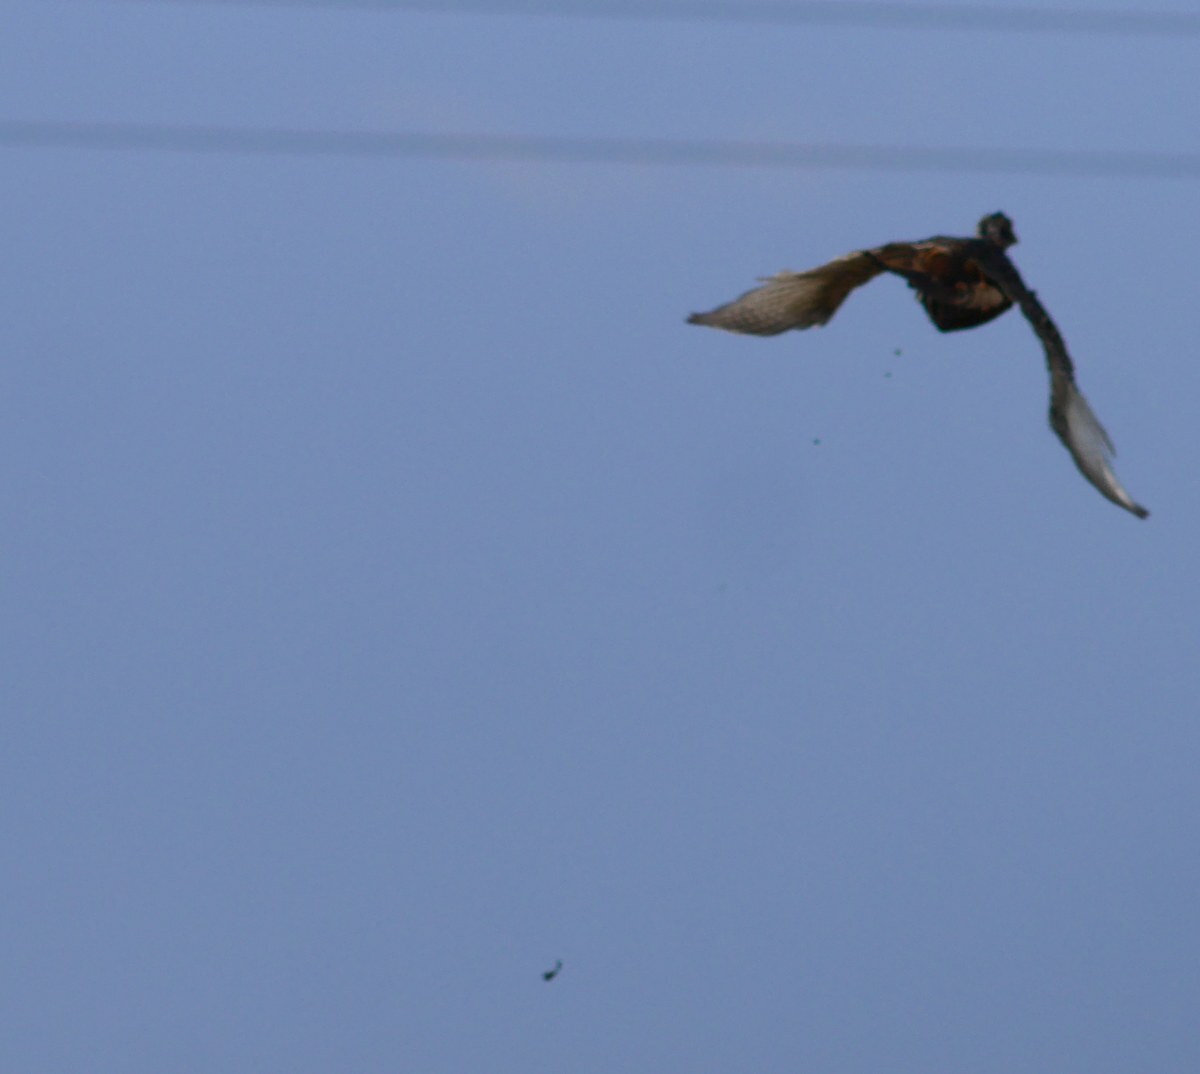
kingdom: Animalia
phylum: Chordata
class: Aves
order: Galliformes
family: Phasianidae
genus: Phasianus
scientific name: Phasianus colchicus
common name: Common pheasant
